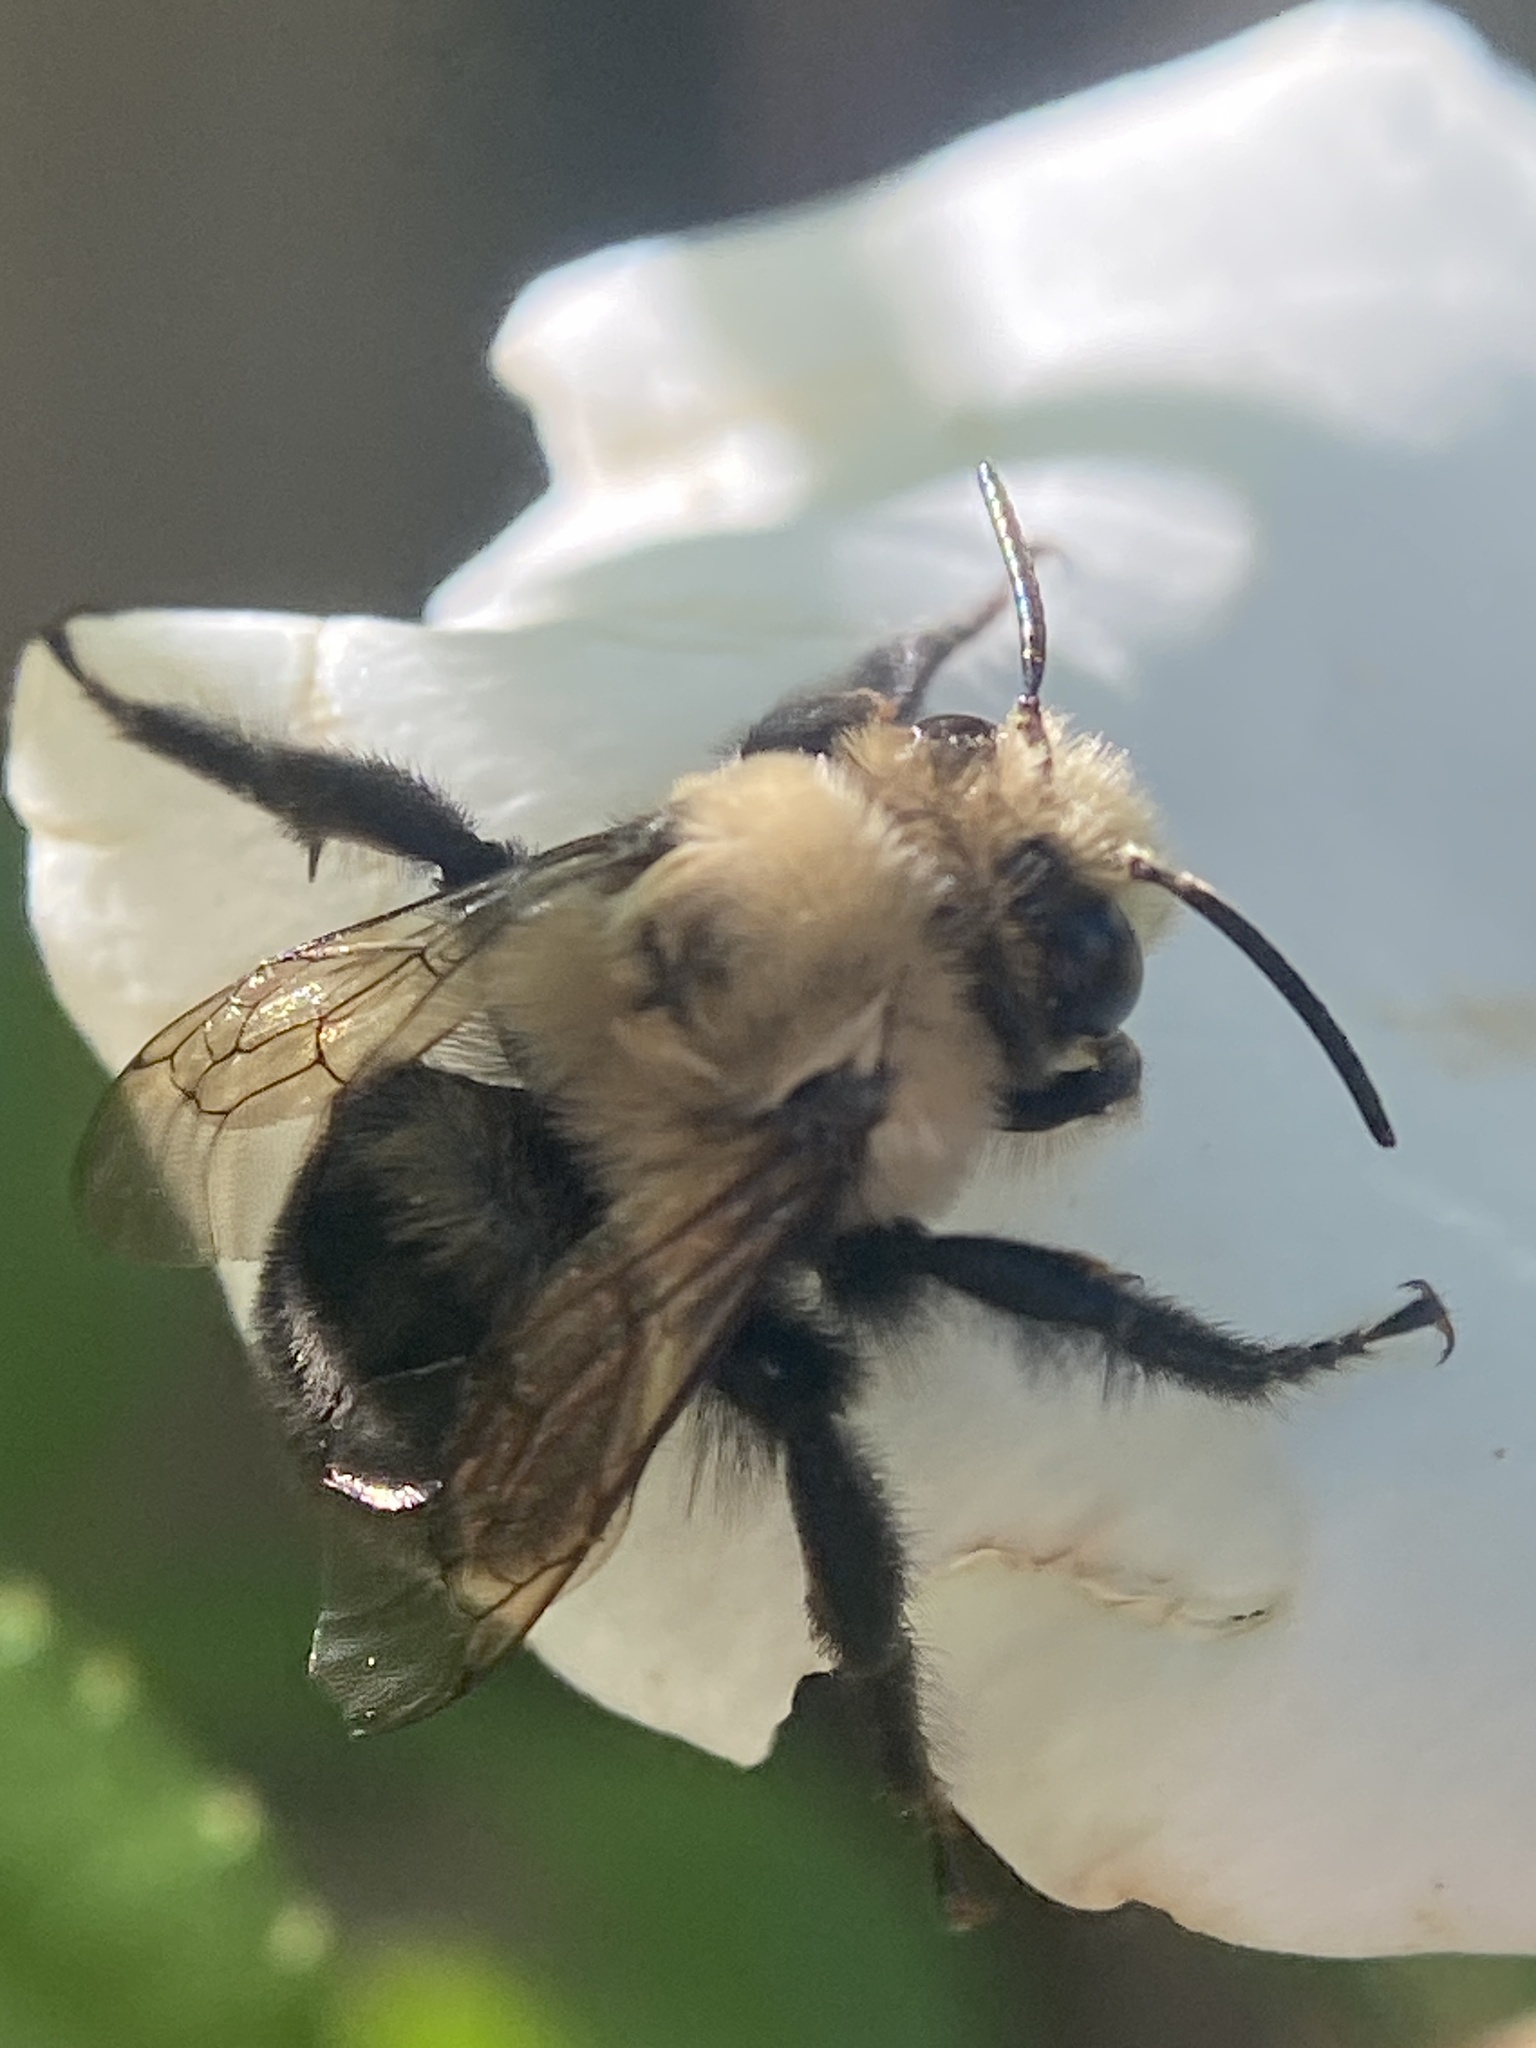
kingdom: Animalia
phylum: Arthropoda
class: Insecta
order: Hymenoptera
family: Apidae
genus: Anthophora
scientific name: Anthophora abrupta
